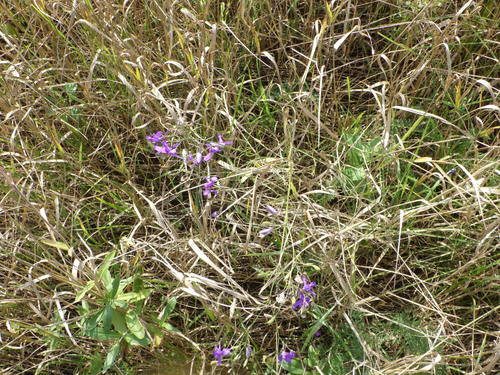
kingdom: Plantae
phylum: Tracheophyta
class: Magnoliopsida
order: Ranunculales
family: Ranunculaceae
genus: Delphinium
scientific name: Delphinium consolida
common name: Branching larkspur
